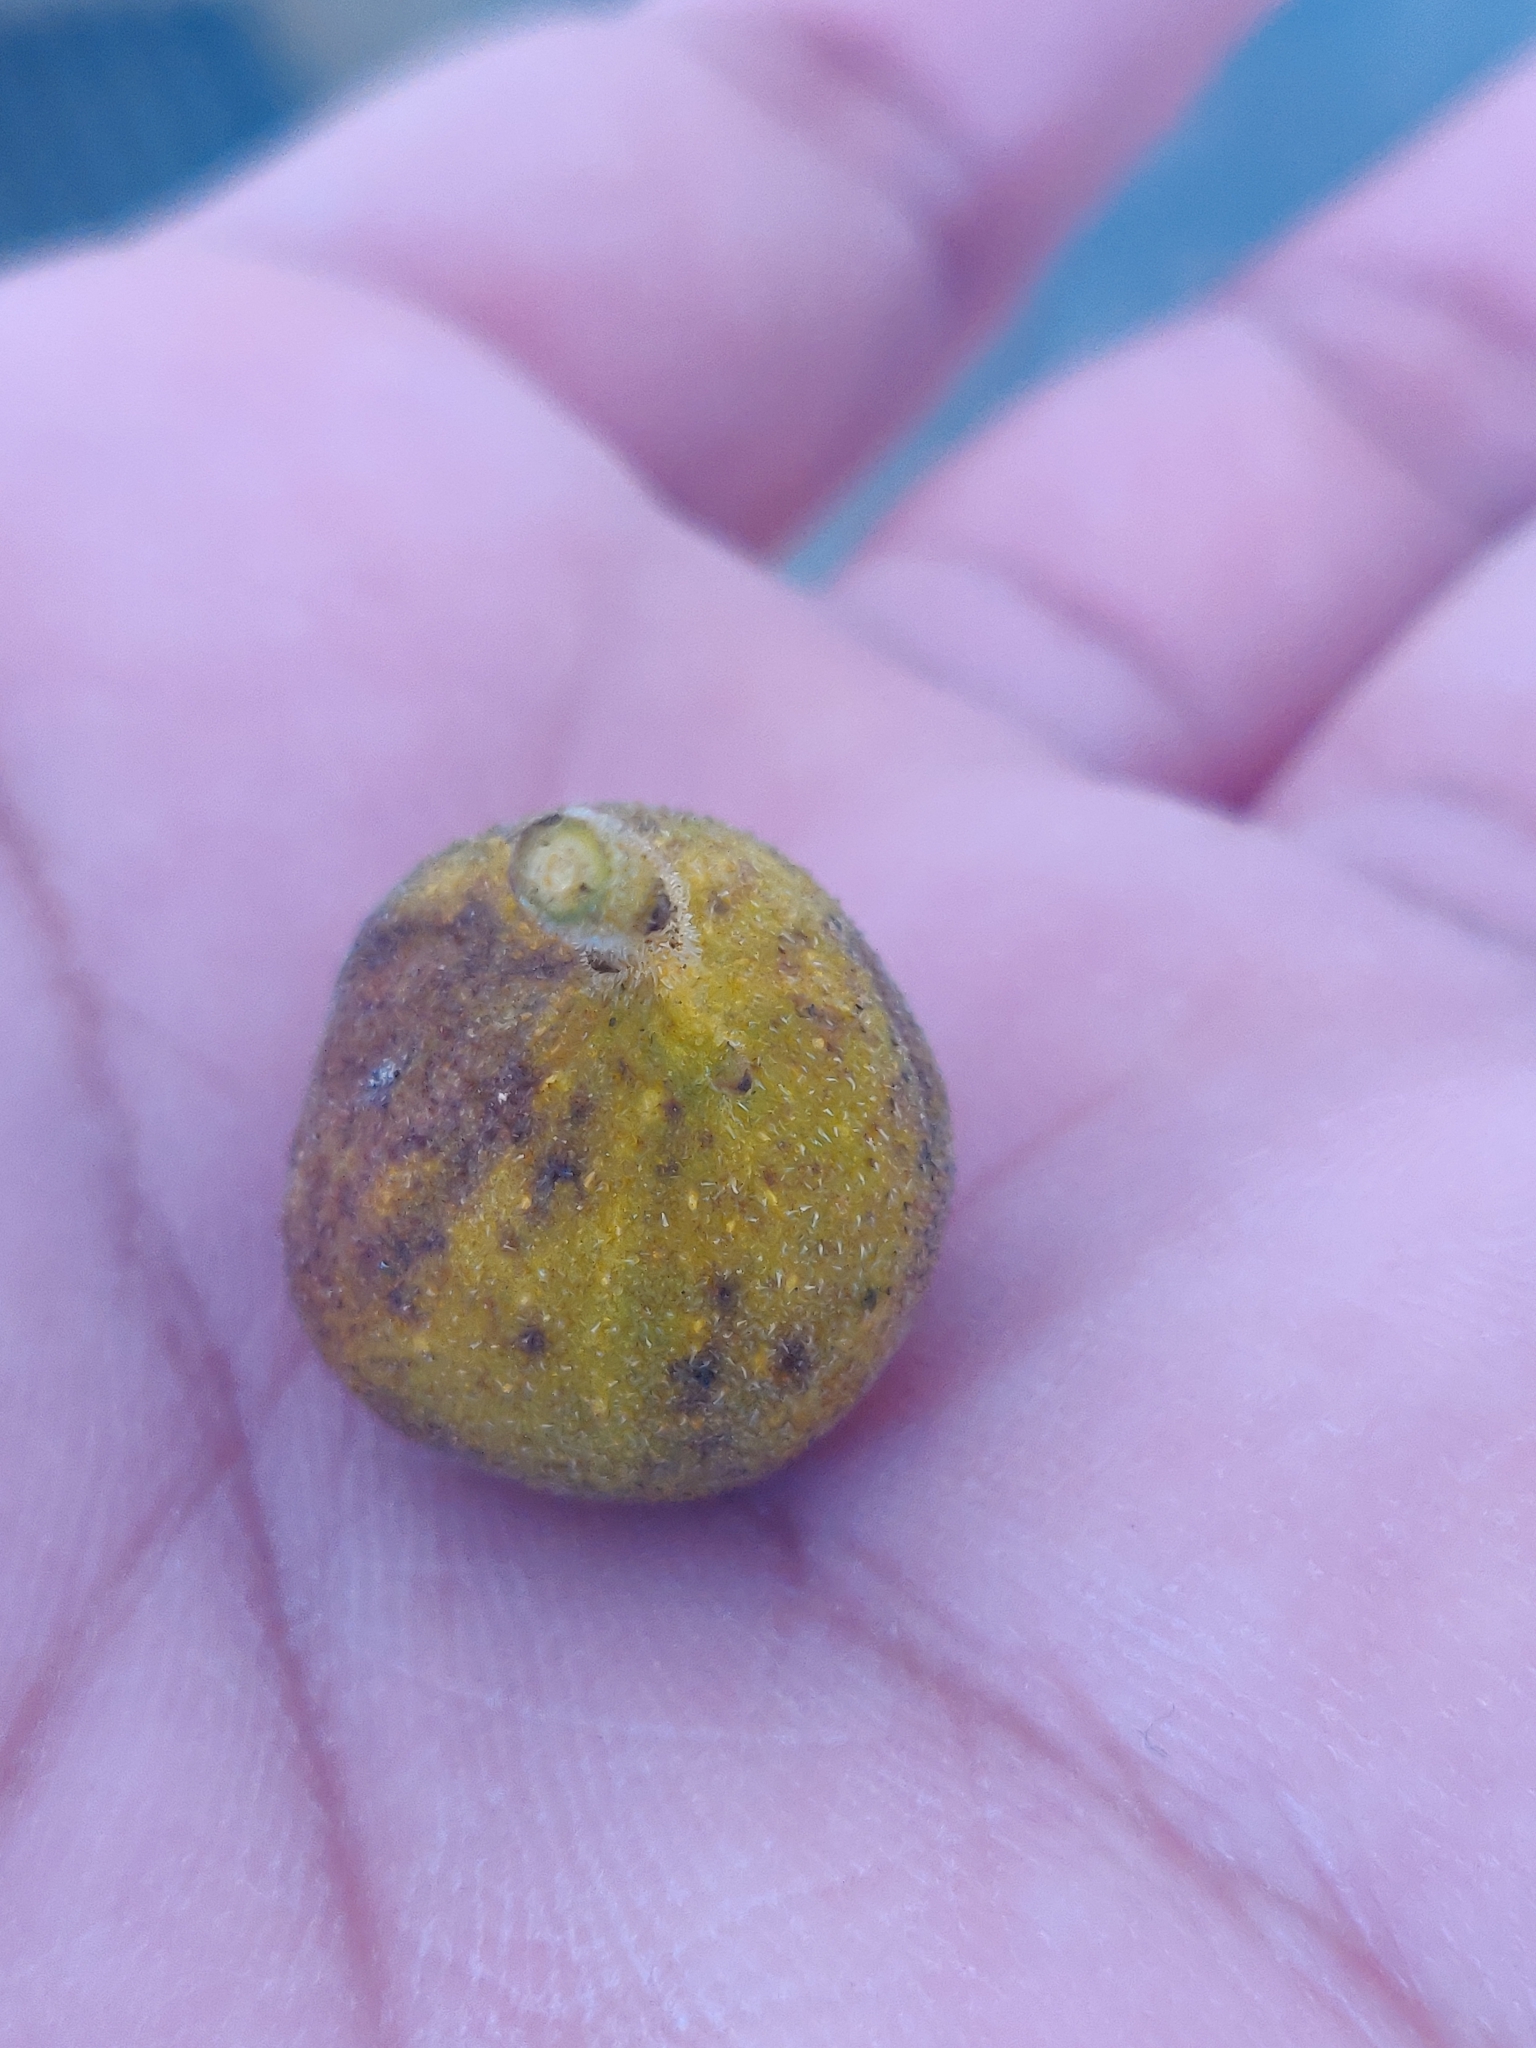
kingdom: Plantae
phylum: Tracheophyta
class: Magnoliopsida
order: Rosales
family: Moraceae
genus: Ficus
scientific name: Ficus exasperata
